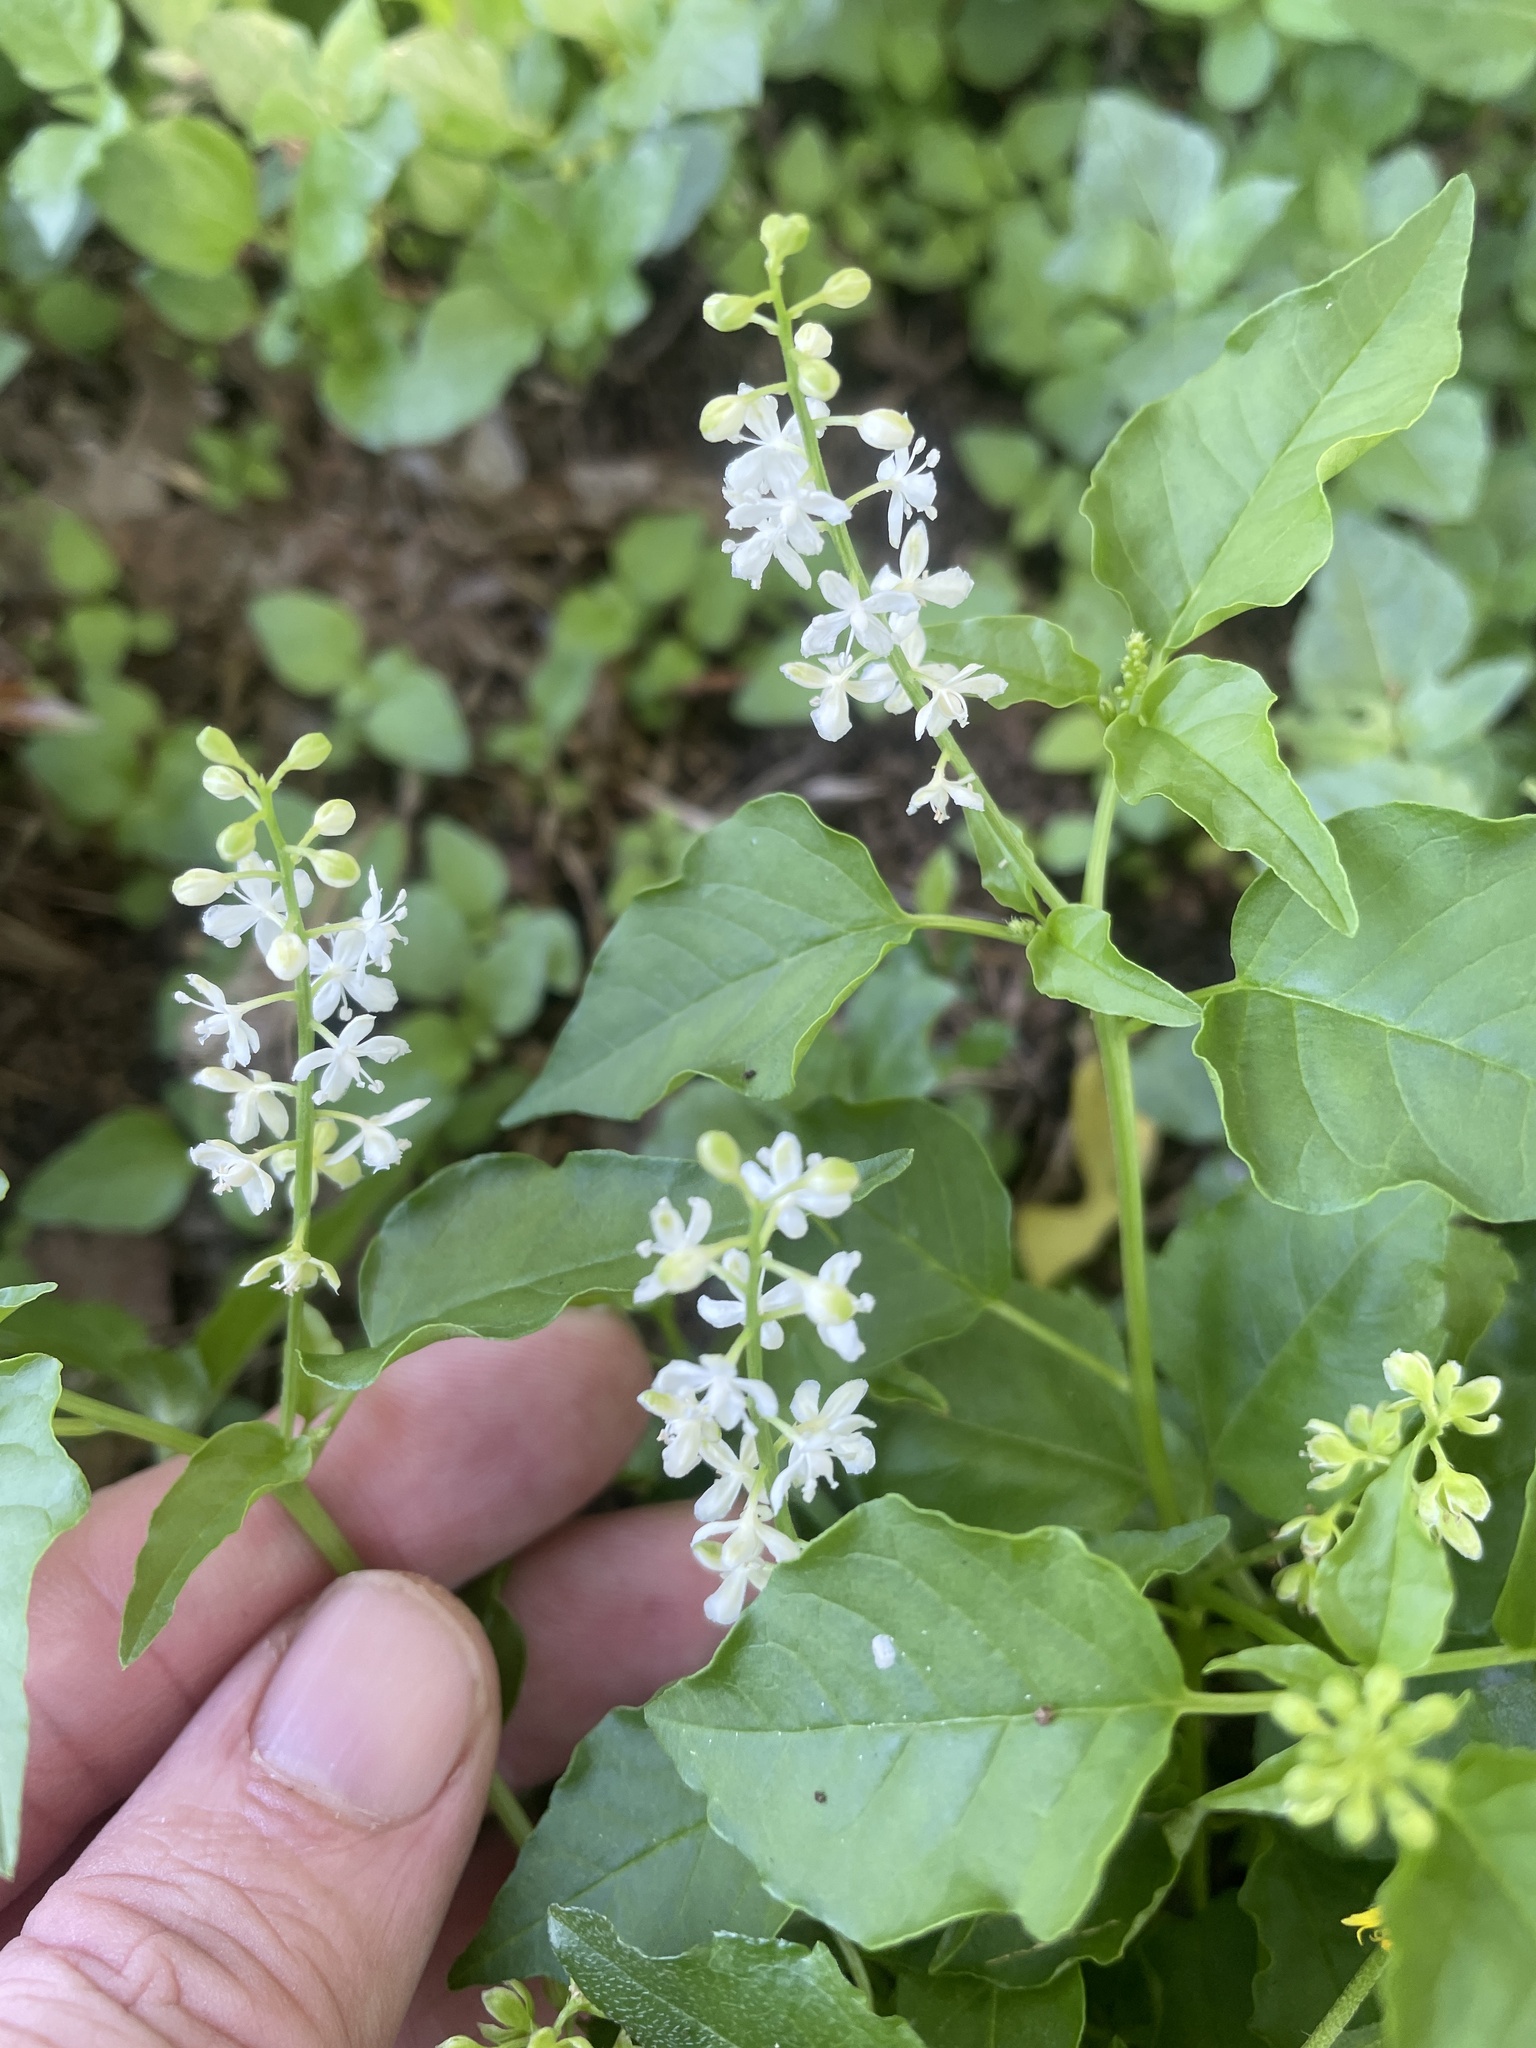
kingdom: Plantae
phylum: Tracheophyta
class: Magnoliopsida
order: Caryophyllales
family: Phytolaccaceae
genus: Rivina
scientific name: Rivina humilis
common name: Rougeplant
